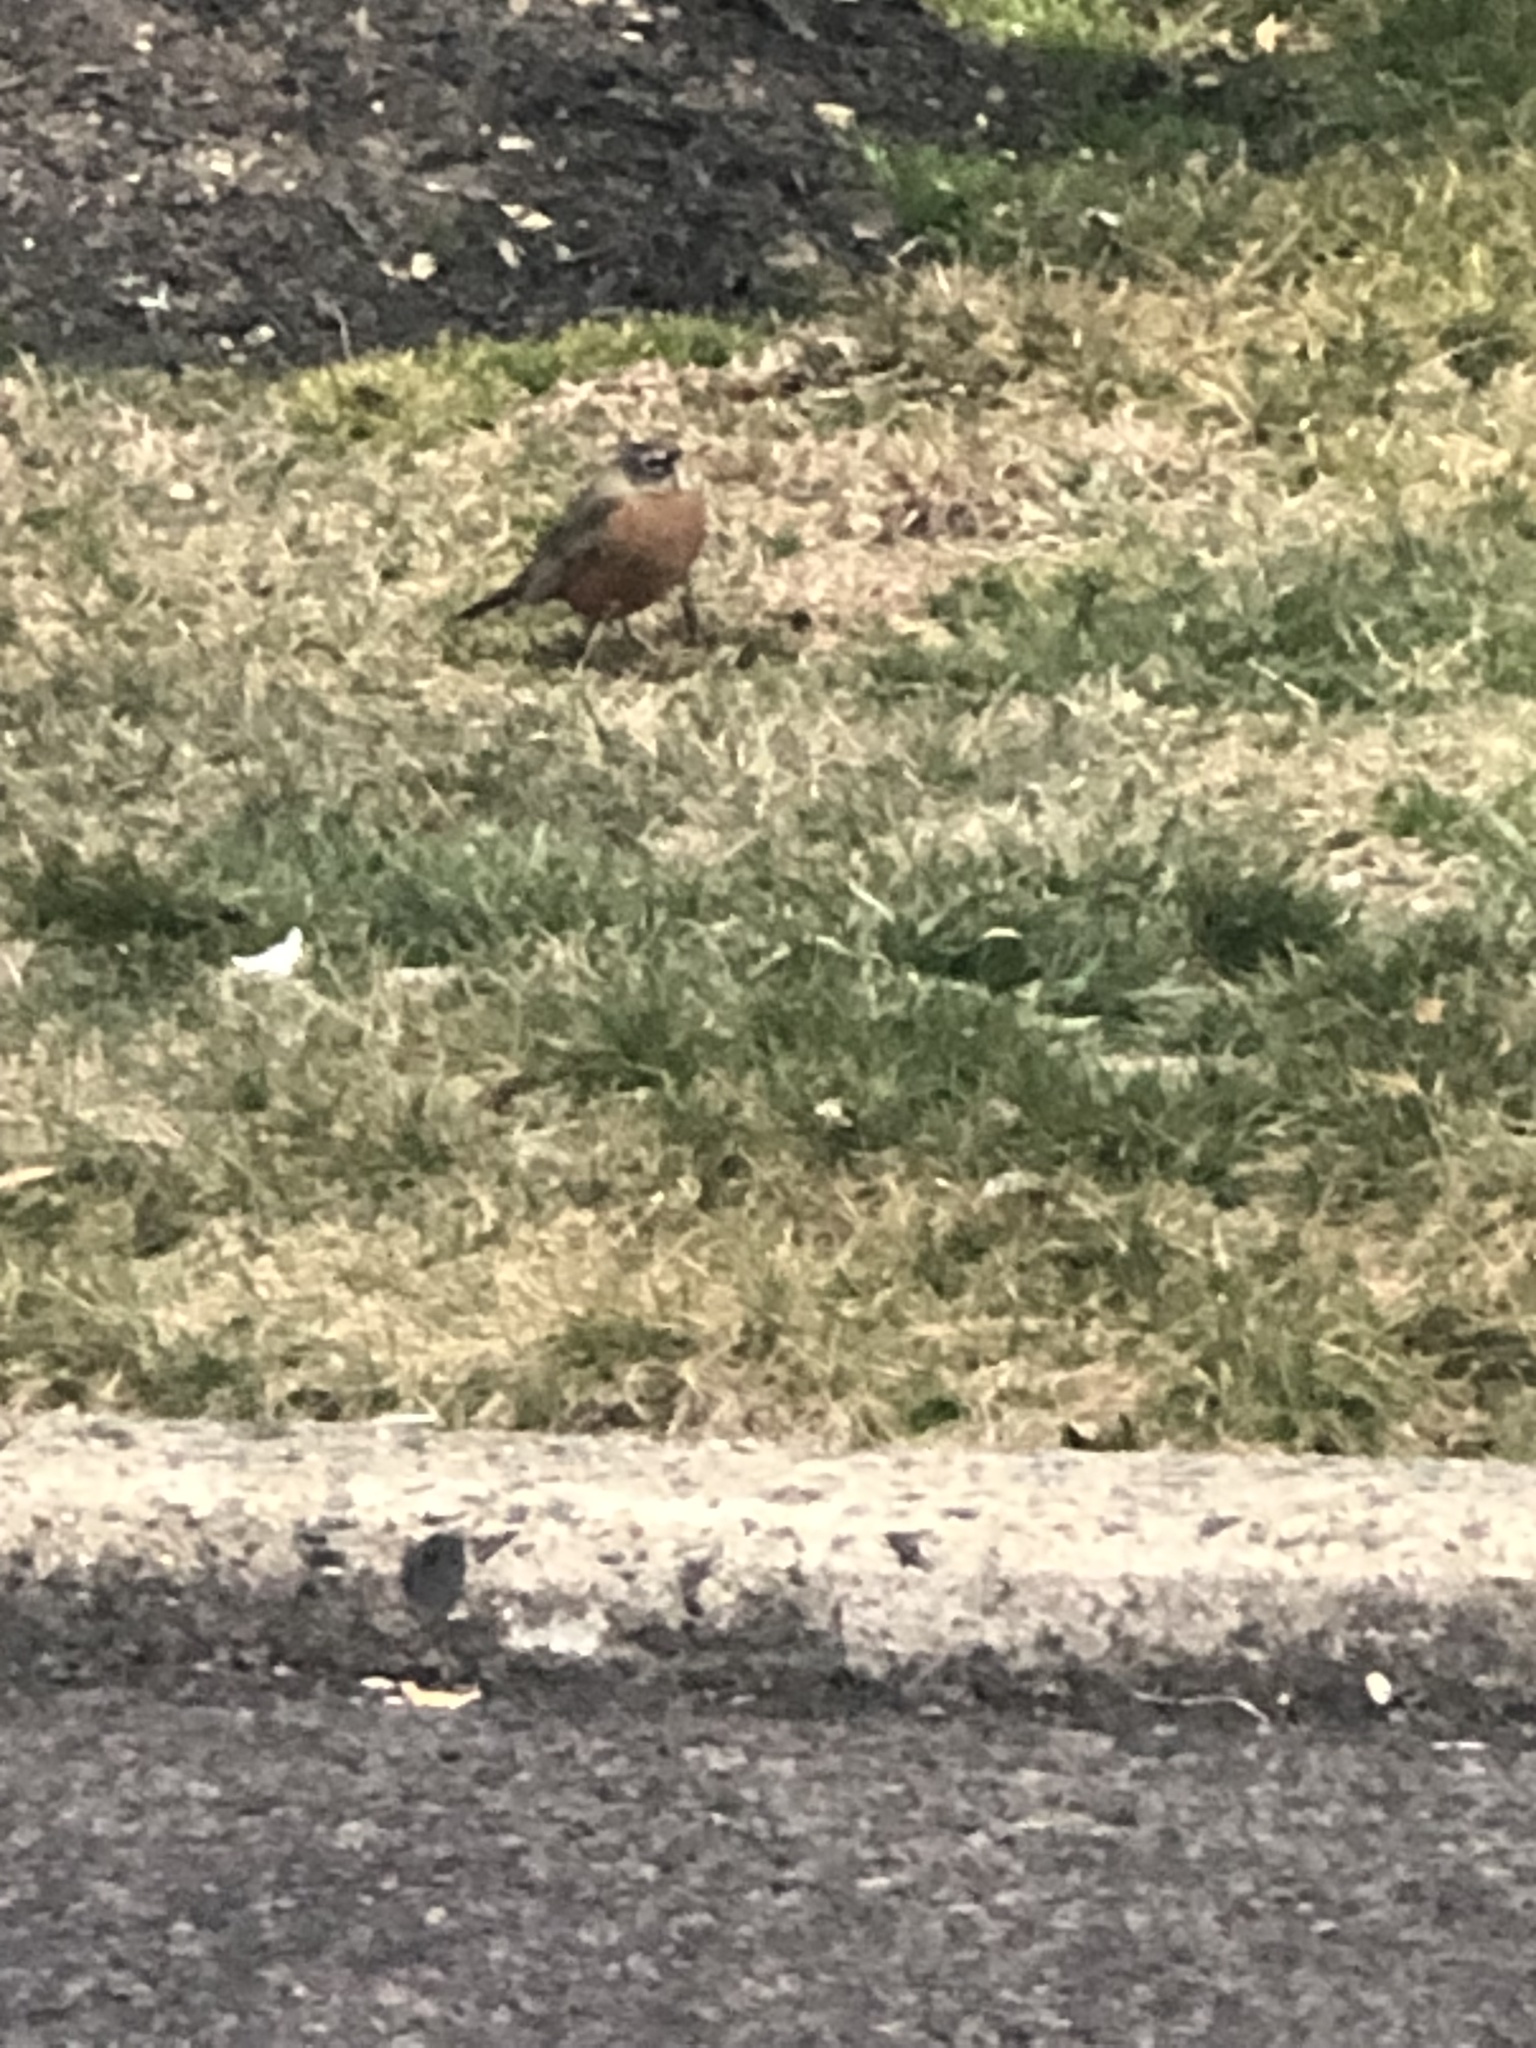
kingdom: Animalia
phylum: Chordata
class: Aves
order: Passeriformes
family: Turdidae
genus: Turdus
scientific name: Turdus migratorius
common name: American robin
